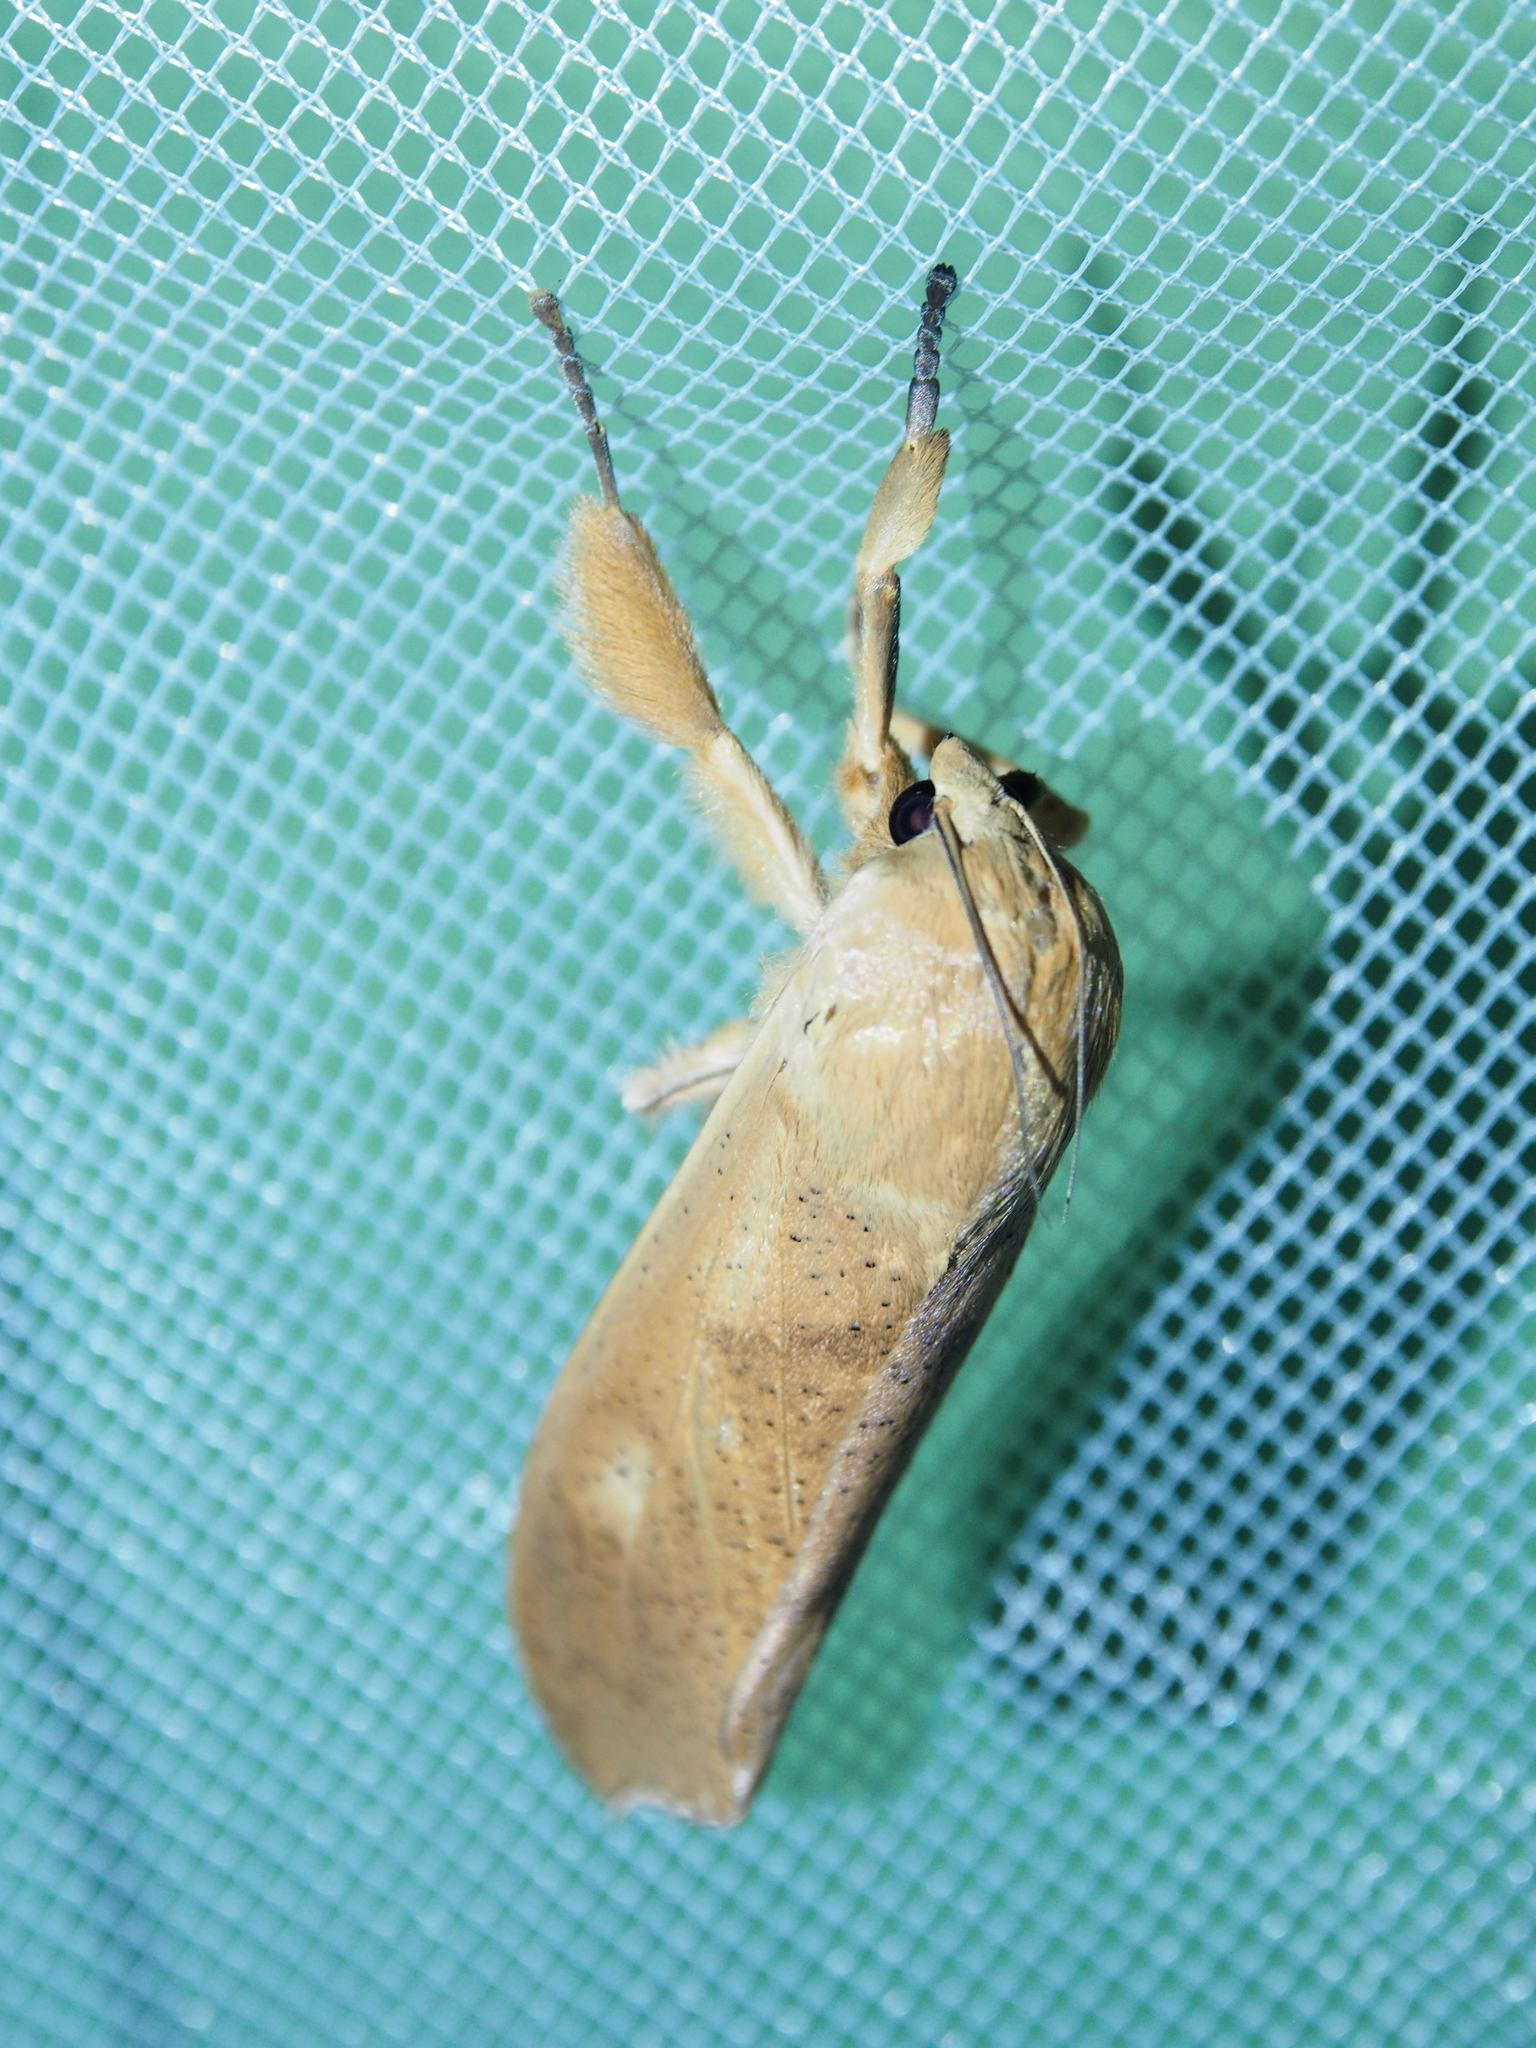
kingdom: Animalia
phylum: Arthropoda
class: Insecta
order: Lepidoptera
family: Crambidae
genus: Myelobia
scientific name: Myelobia smerintha
